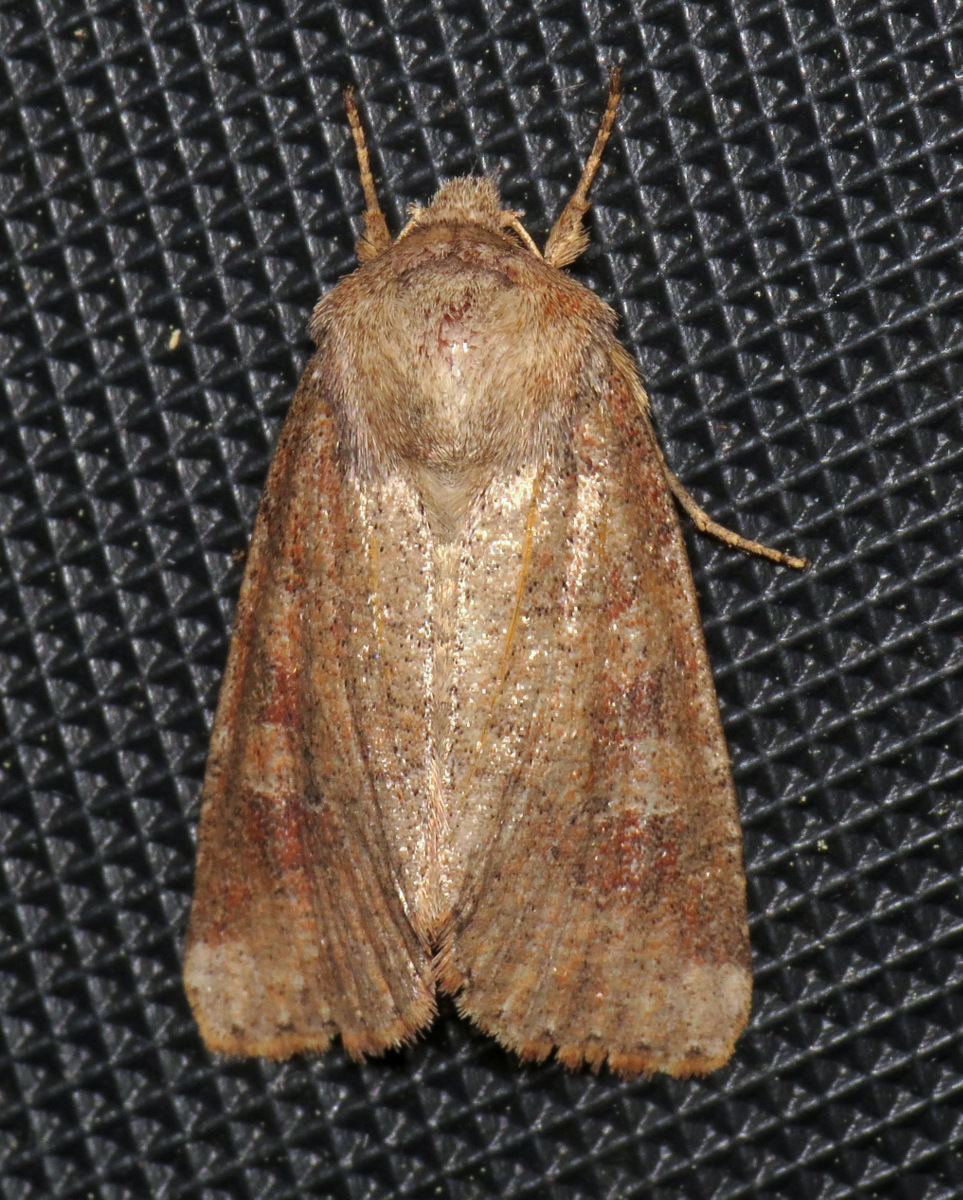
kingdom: Animalia
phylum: Arthropoda
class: Insecta
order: Lepidoptera
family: Noctuidae
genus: Crocigrapha
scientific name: Crocigrapha normani
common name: Norman's quaker
